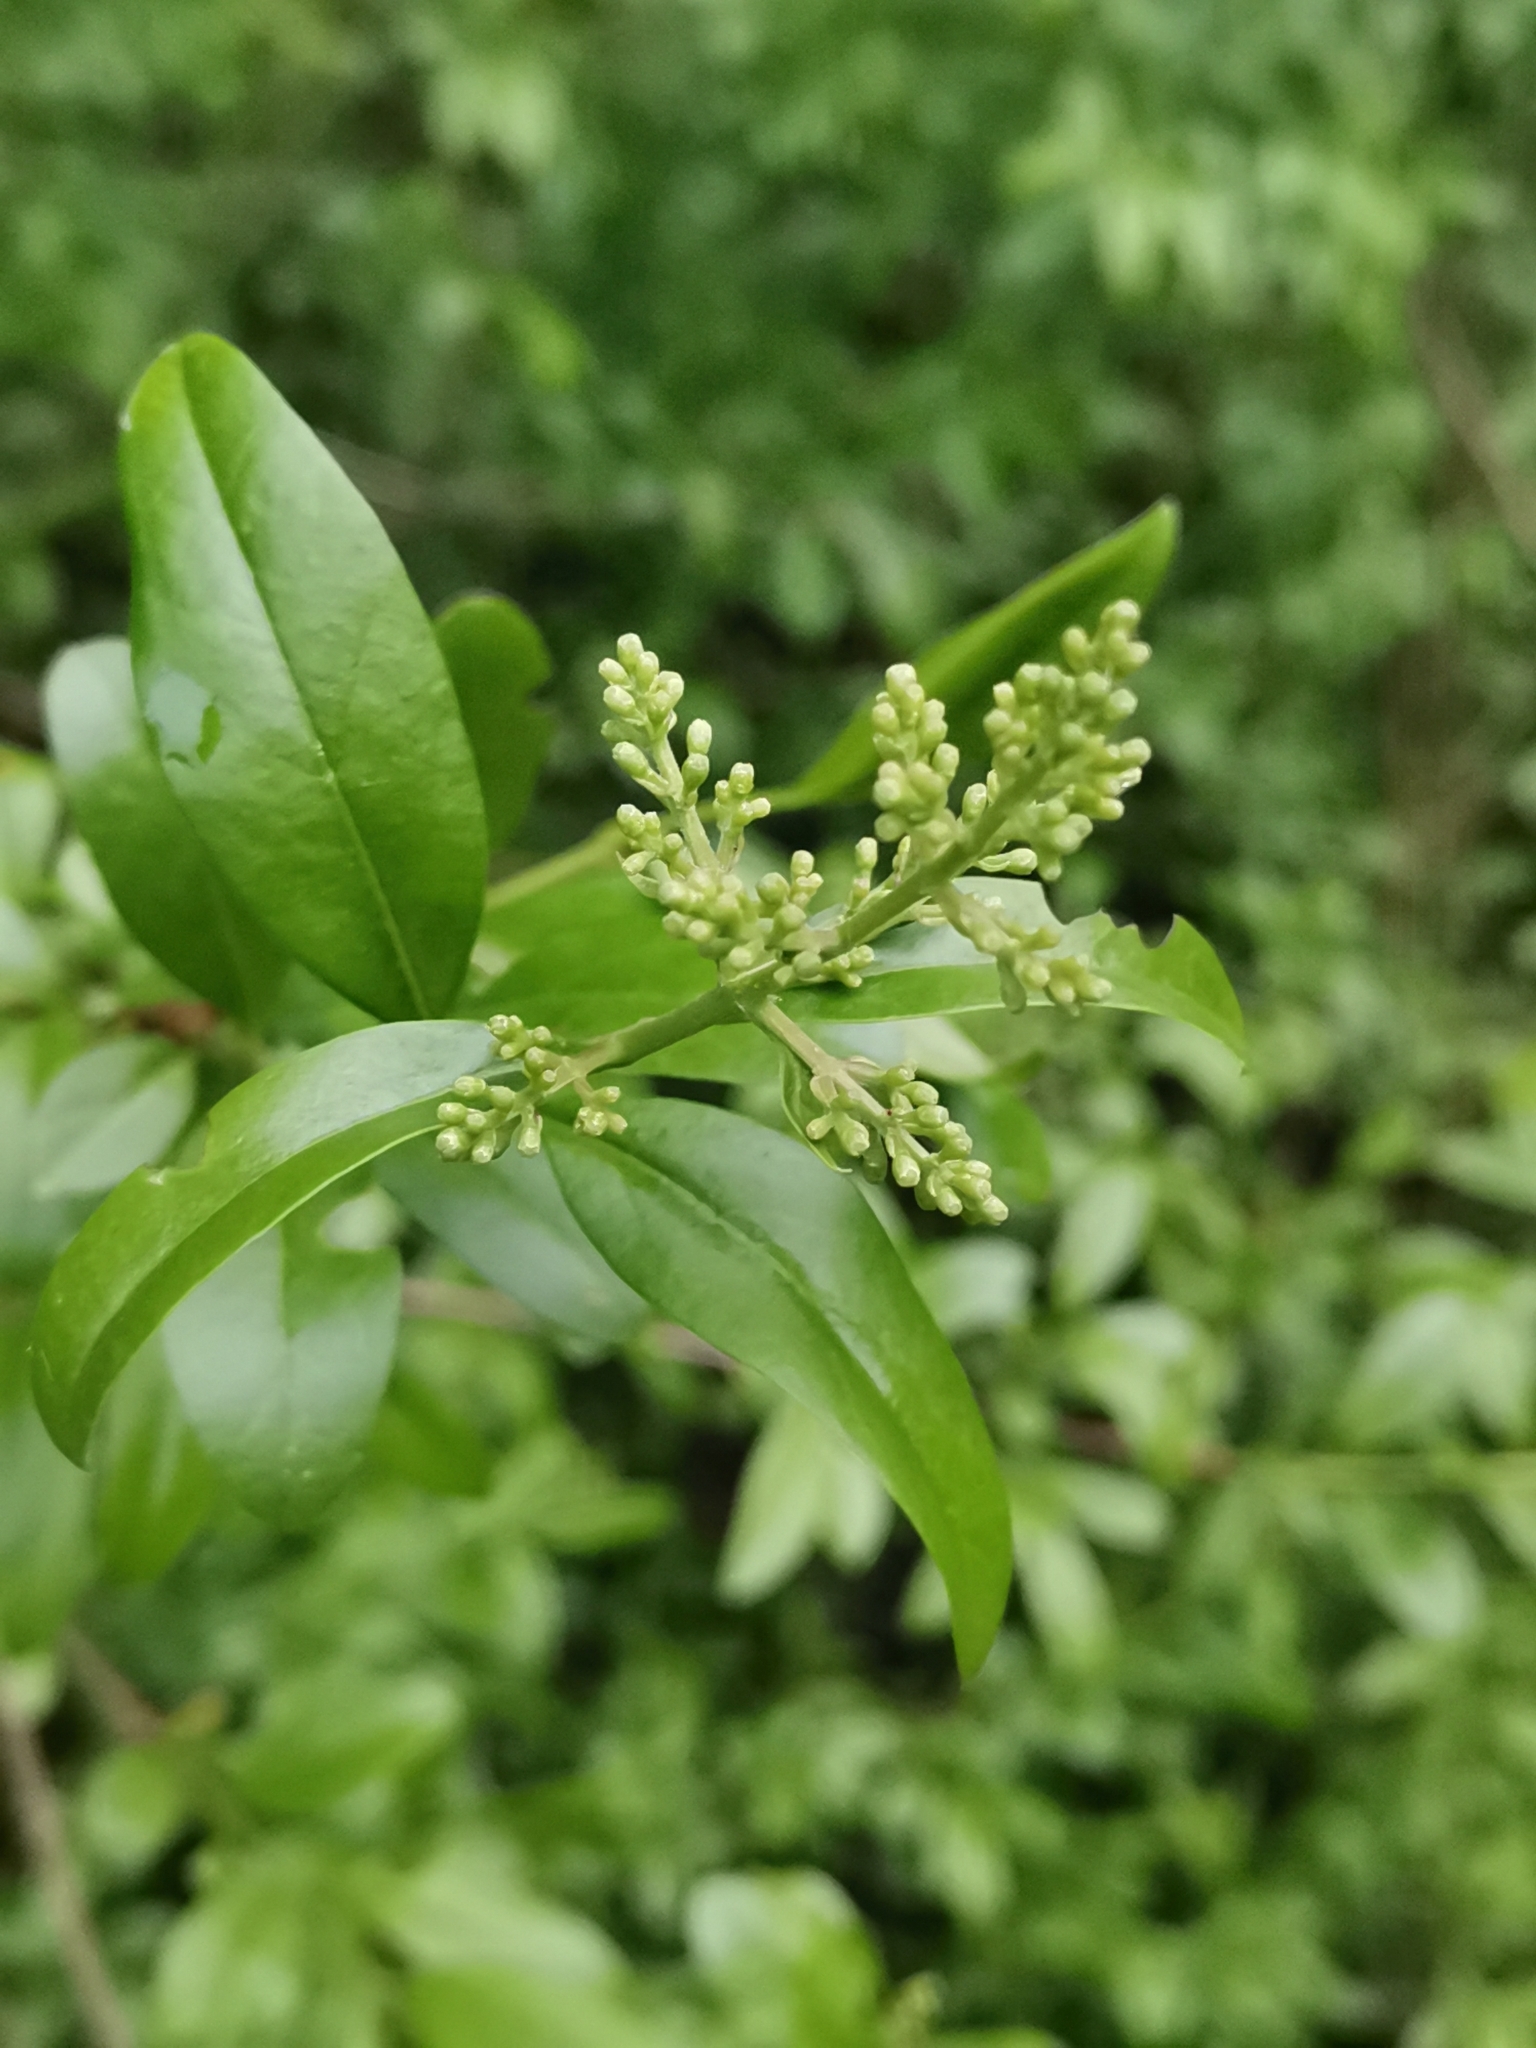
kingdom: Plantae
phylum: Tracheophyta
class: Magnoliopsida
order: Lamiales
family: Oleaceae
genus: Ligustrum
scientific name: Ligustrum vulgare
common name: Wild privet
